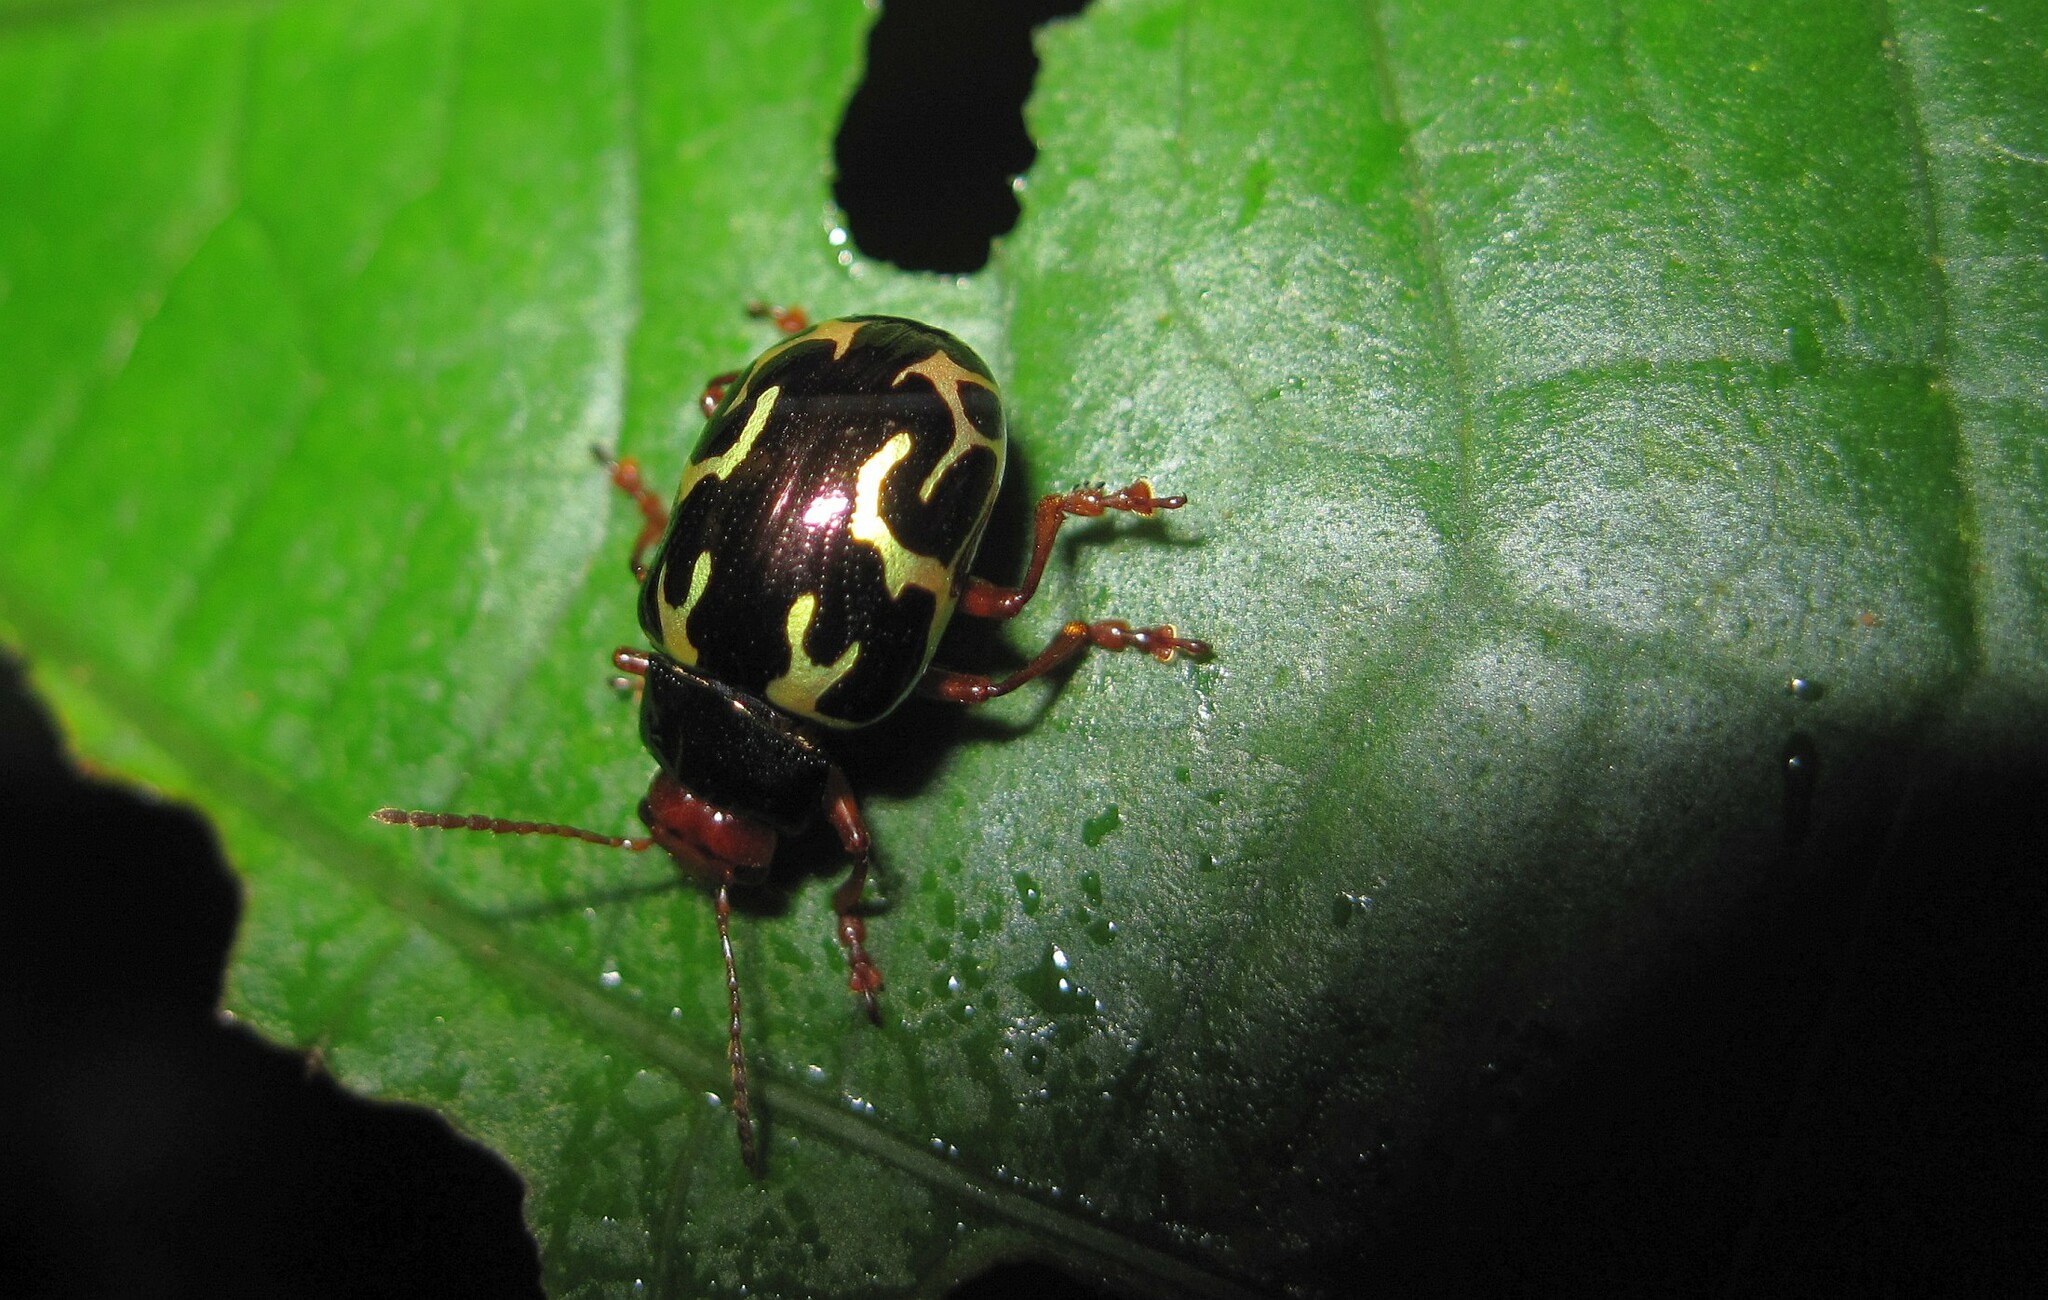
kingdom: Animalia
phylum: Arthropoda
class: Insecta
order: Coleoptera
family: Chrysomelidae
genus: Calligrapha
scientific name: Calligrapha
